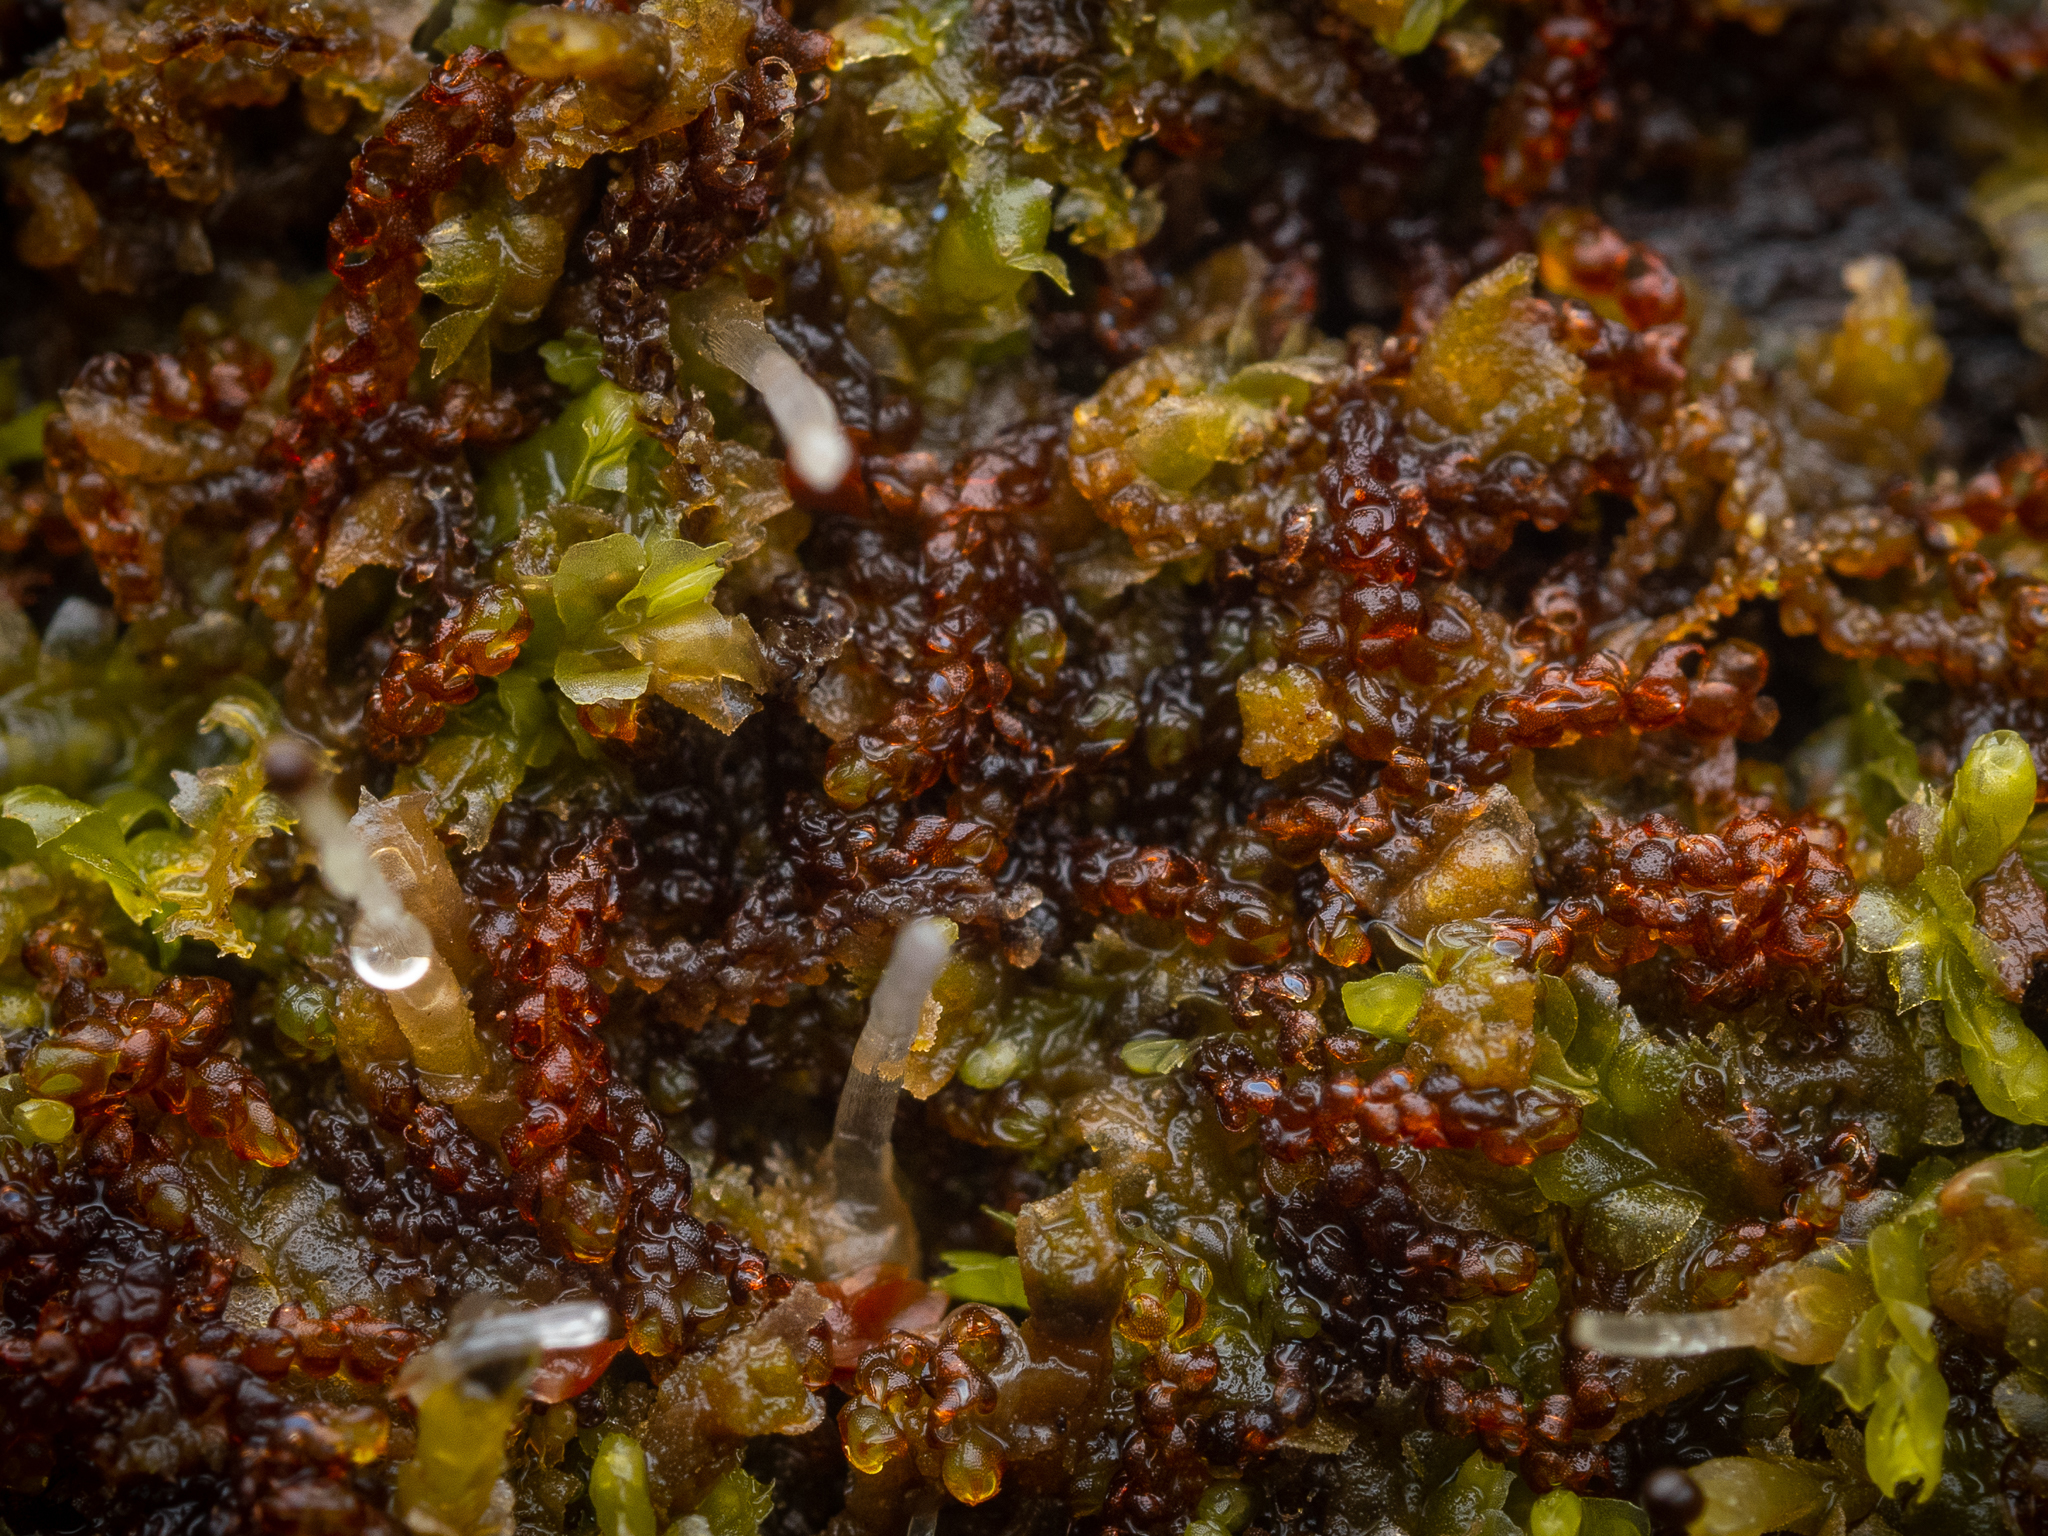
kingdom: Plantae
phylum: Marchantiophyta
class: Jungermanniopsida
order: Jungermanniales
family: Cephaloziaceae
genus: Nowellia
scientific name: Nowellia curvifolia
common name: Wood rustwort
